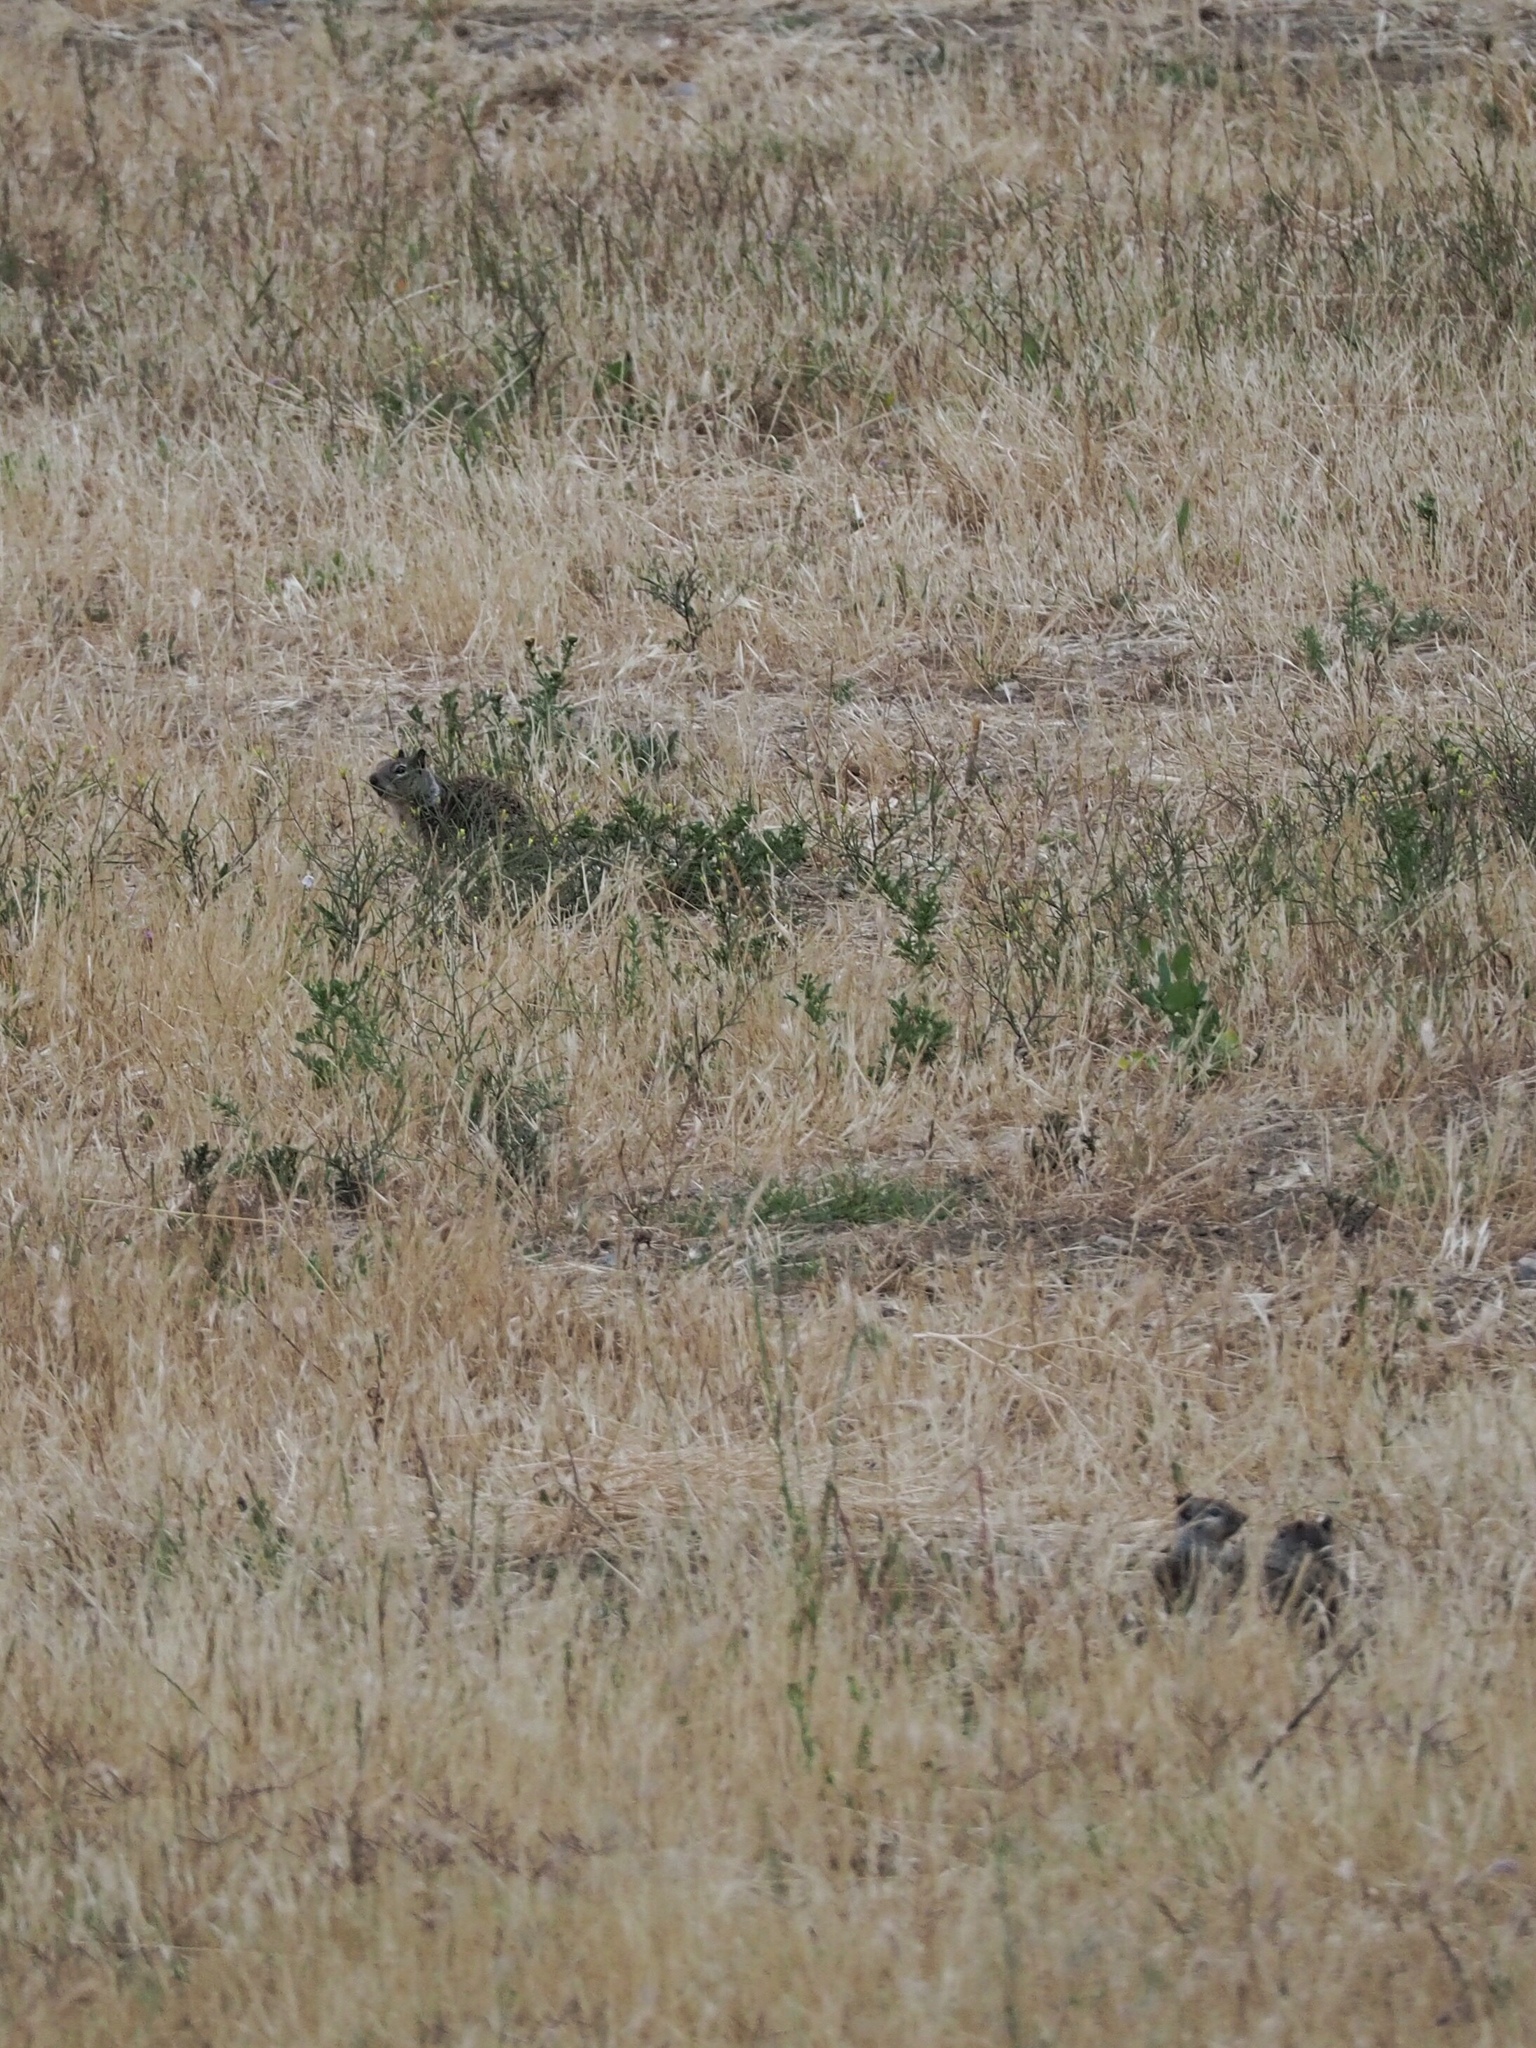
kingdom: Animalia
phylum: Chordata
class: Mammalia
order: Rodentia
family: Sciuridae
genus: Otospermophilus
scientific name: Otospermophilus beecheyi
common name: California ground squirrel
